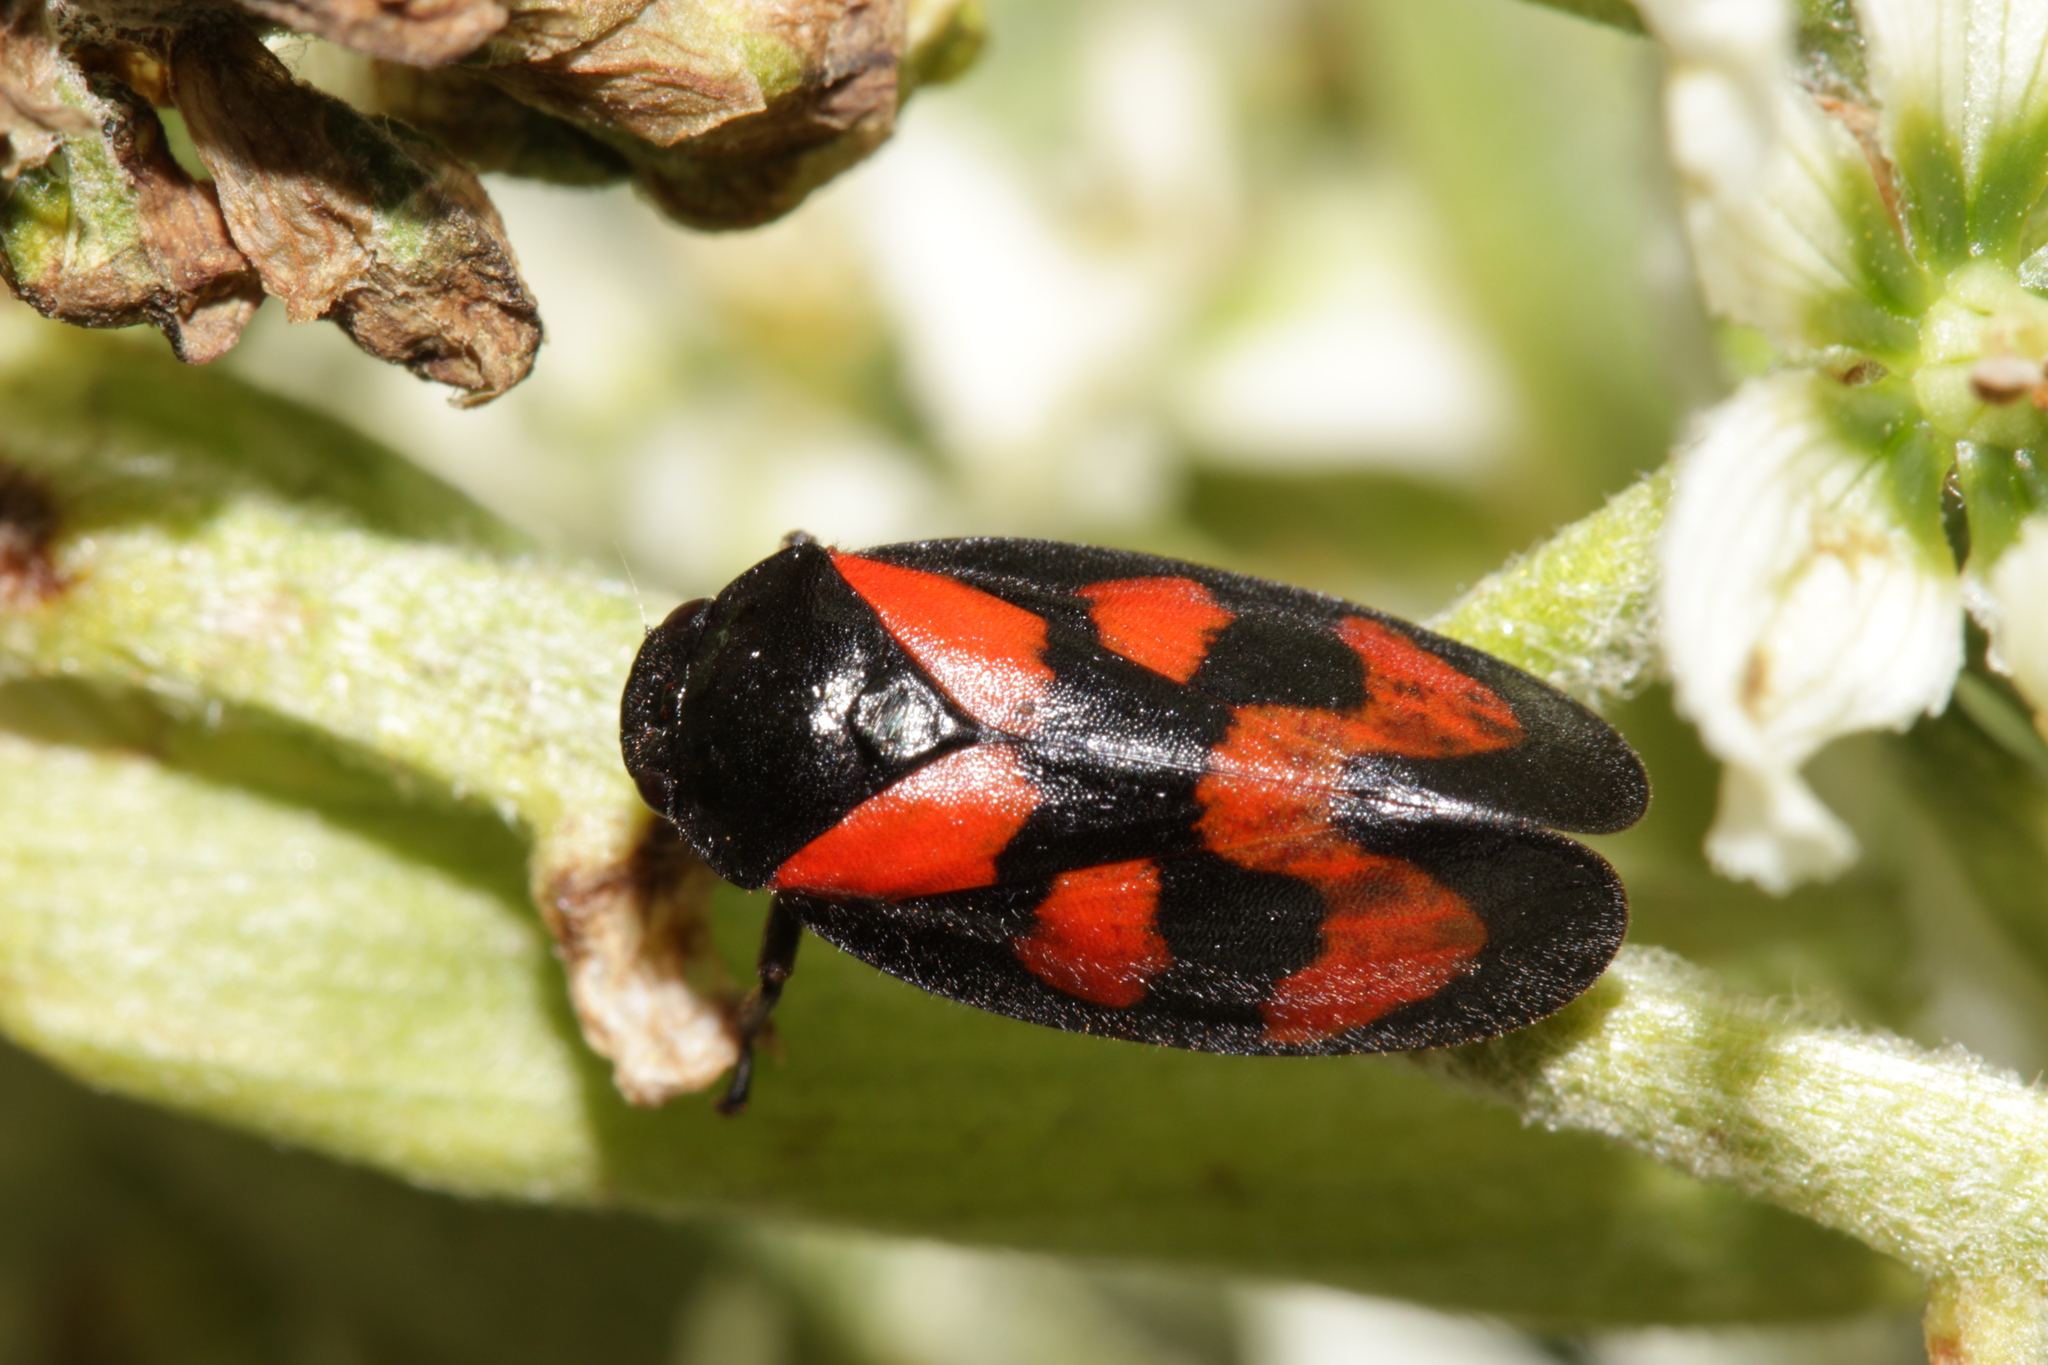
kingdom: Animalia
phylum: Arthropoda
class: Insecta
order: Hemiptera
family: Cercopidae
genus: Cercopis
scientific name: Cercopis vulnerata
